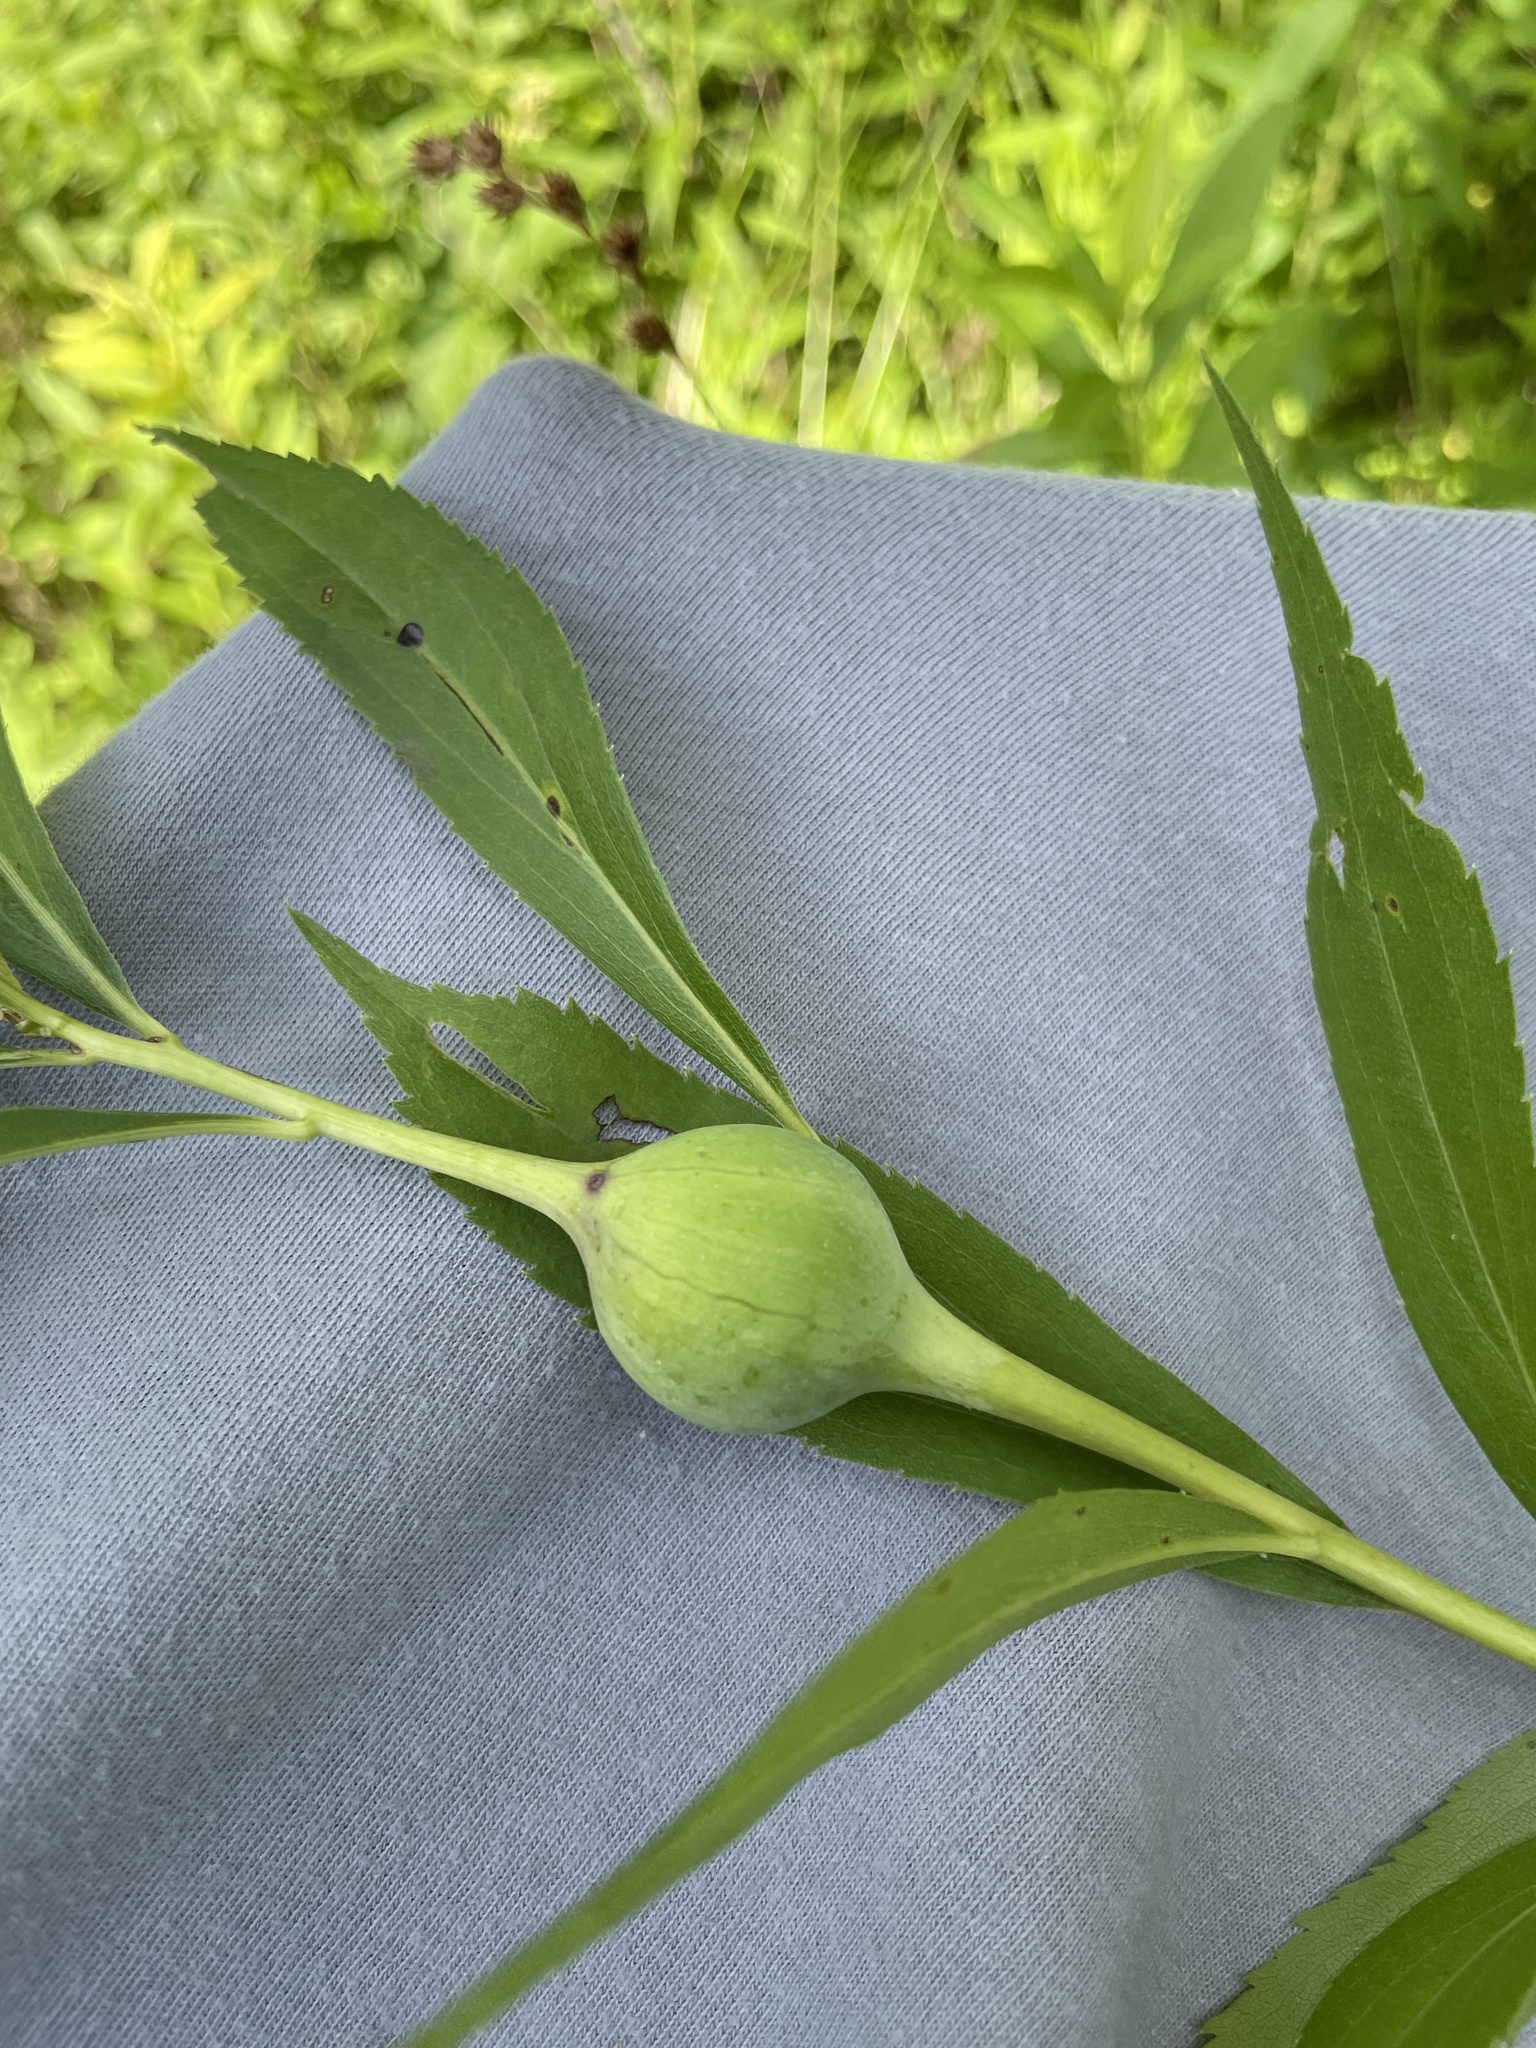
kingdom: Animalia
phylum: Arthropoda
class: Insecta
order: Diptera
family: Tephritidae
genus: Eurosta
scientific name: Eurosta solidaginis
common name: Goldenrod gall fly
